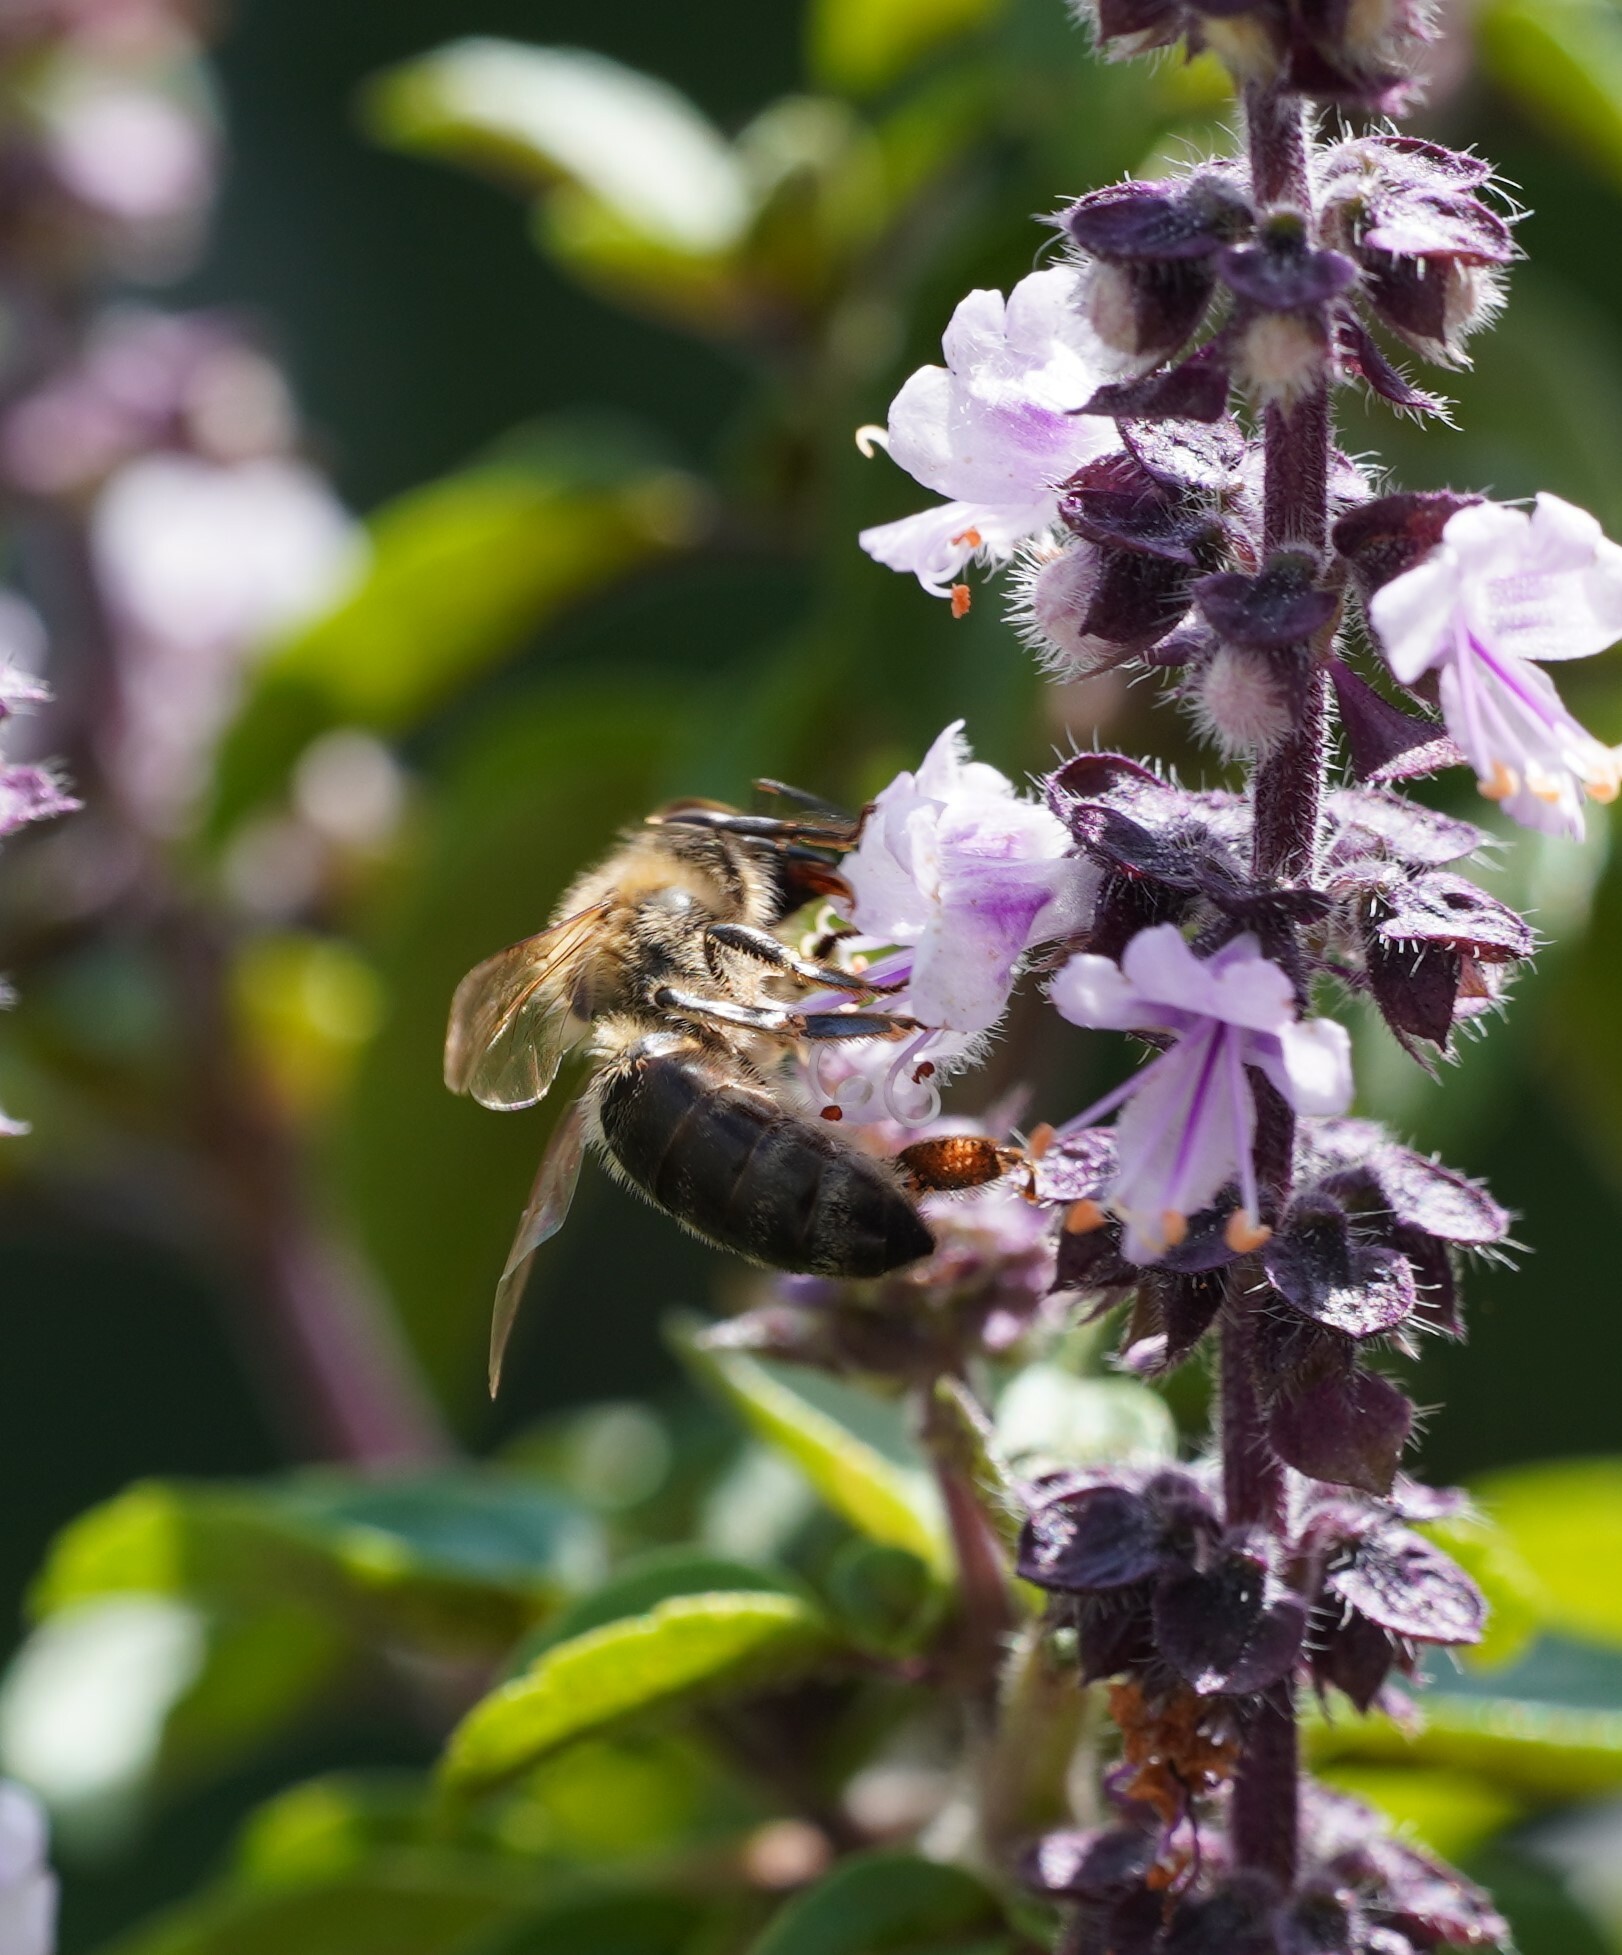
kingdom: Animalia
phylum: Arthropoda
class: Insecta
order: Hymenoptera
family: Apidae
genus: Apis
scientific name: Apis mellifera
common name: Honey bee
